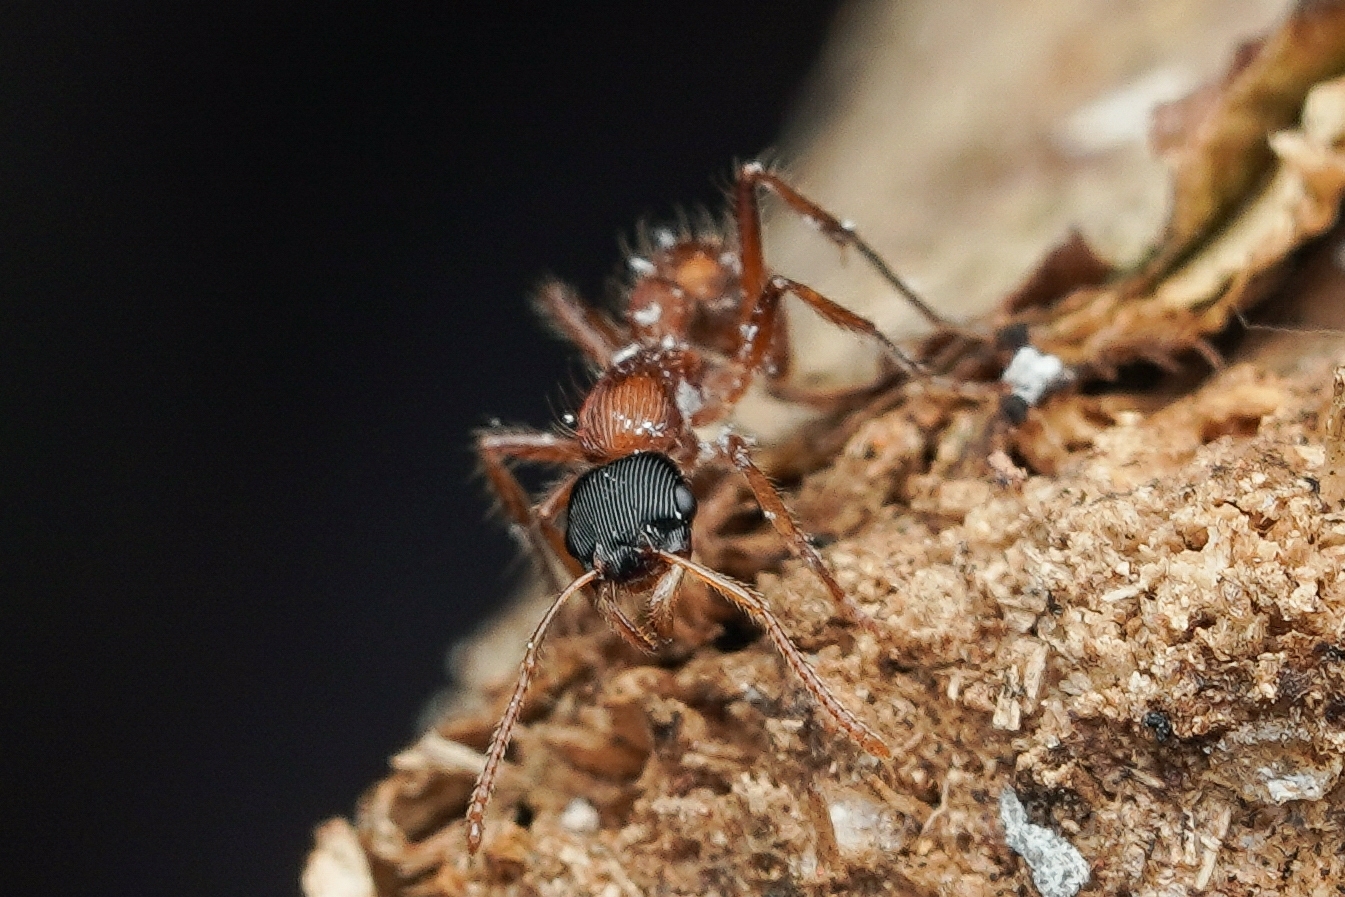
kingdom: Animalia
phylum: Arthropoda
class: Insecta
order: Hymenoptera
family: Formicidae
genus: Gnamptogenys
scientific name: Gnamptogenys sulcata
